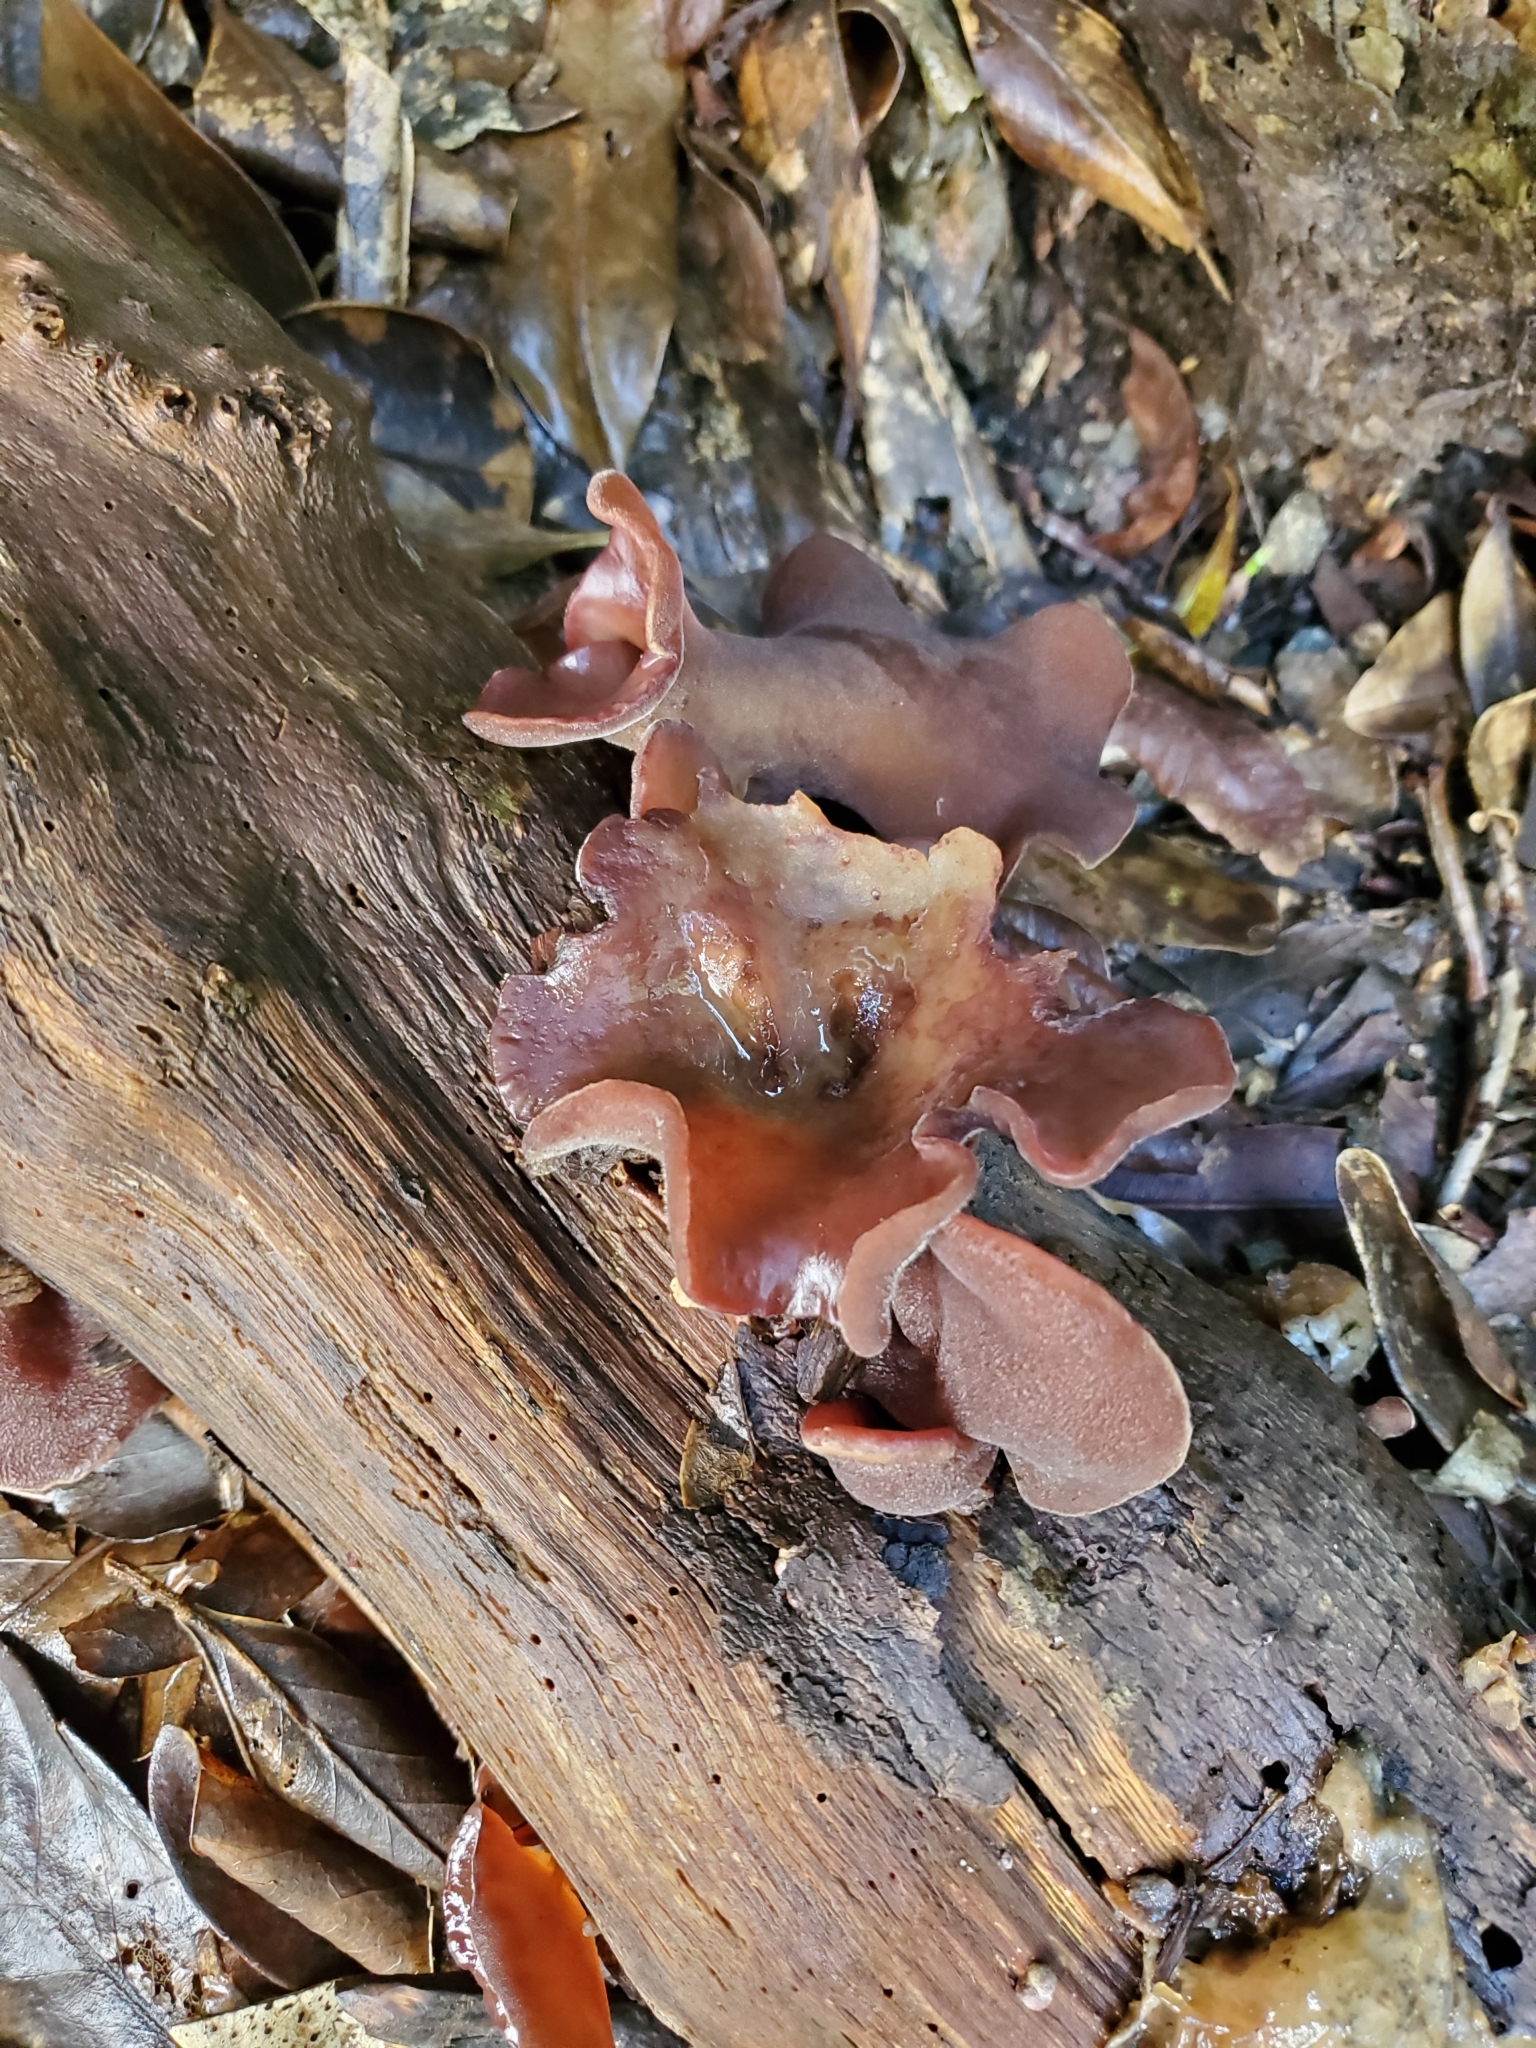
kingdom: Fungi
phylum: Basidiomycota
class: Agaricomycetes
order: Auriculariales
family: Auriculariaceae
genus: Auricularia
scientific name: Auricularia cornea
